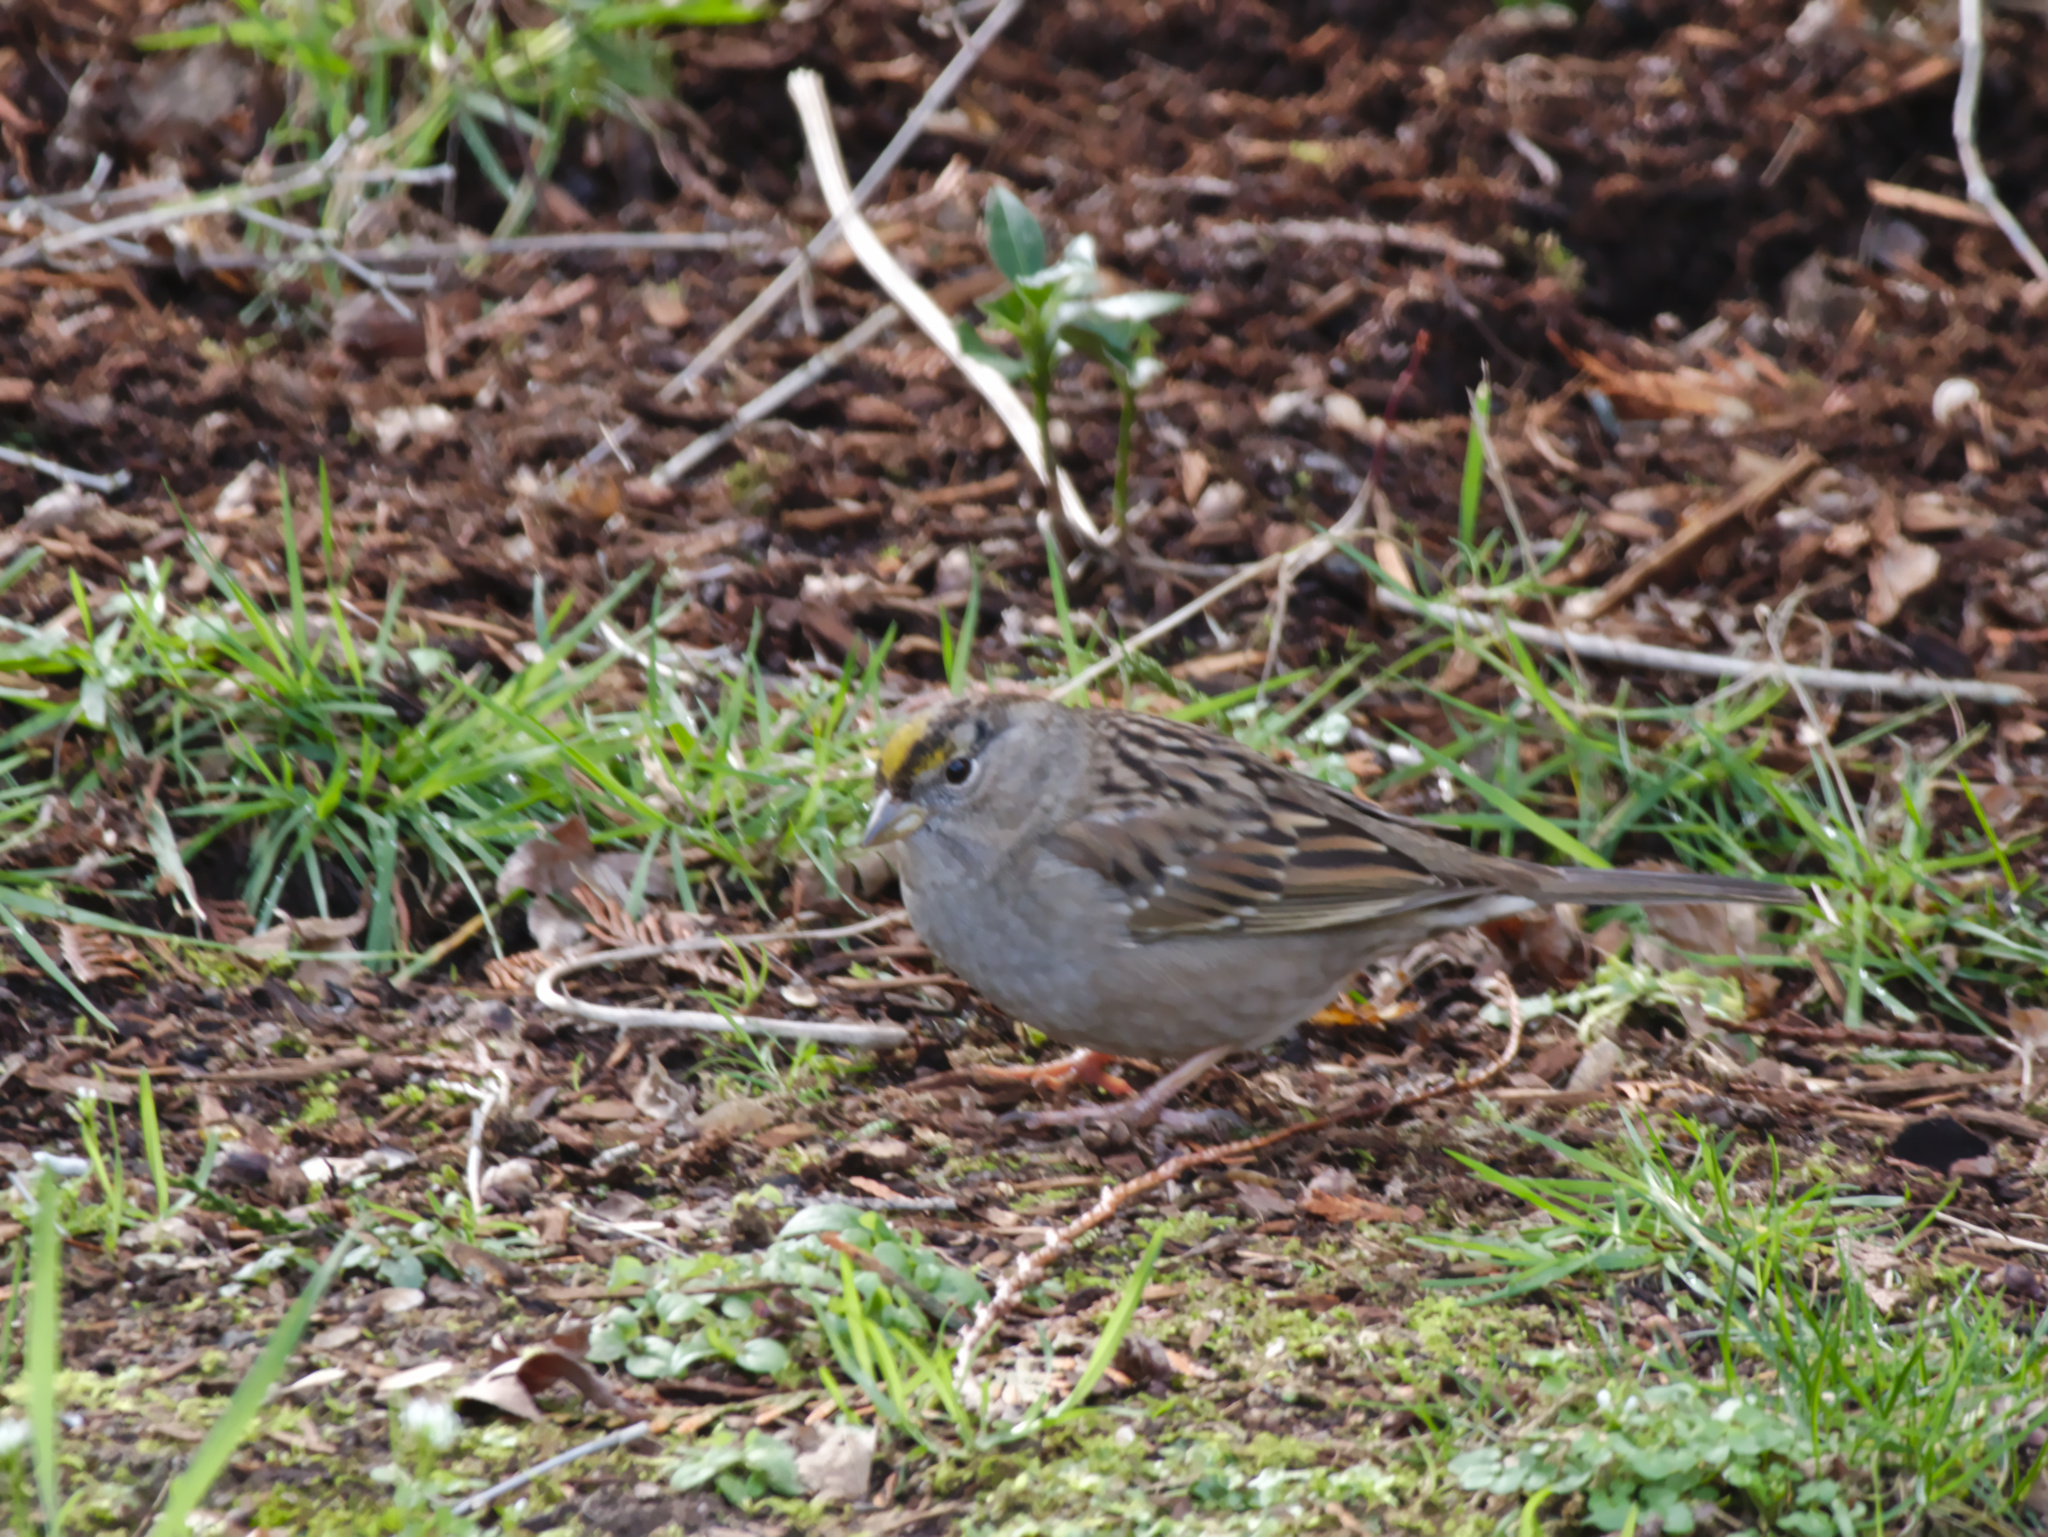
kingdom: Animalia
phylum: Chordata
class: Aves
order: Passeriformes
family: Passerellidae
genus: Zonotrichia
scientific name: Zonotrichia atricapilla
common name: Golden-crowned sparrow
